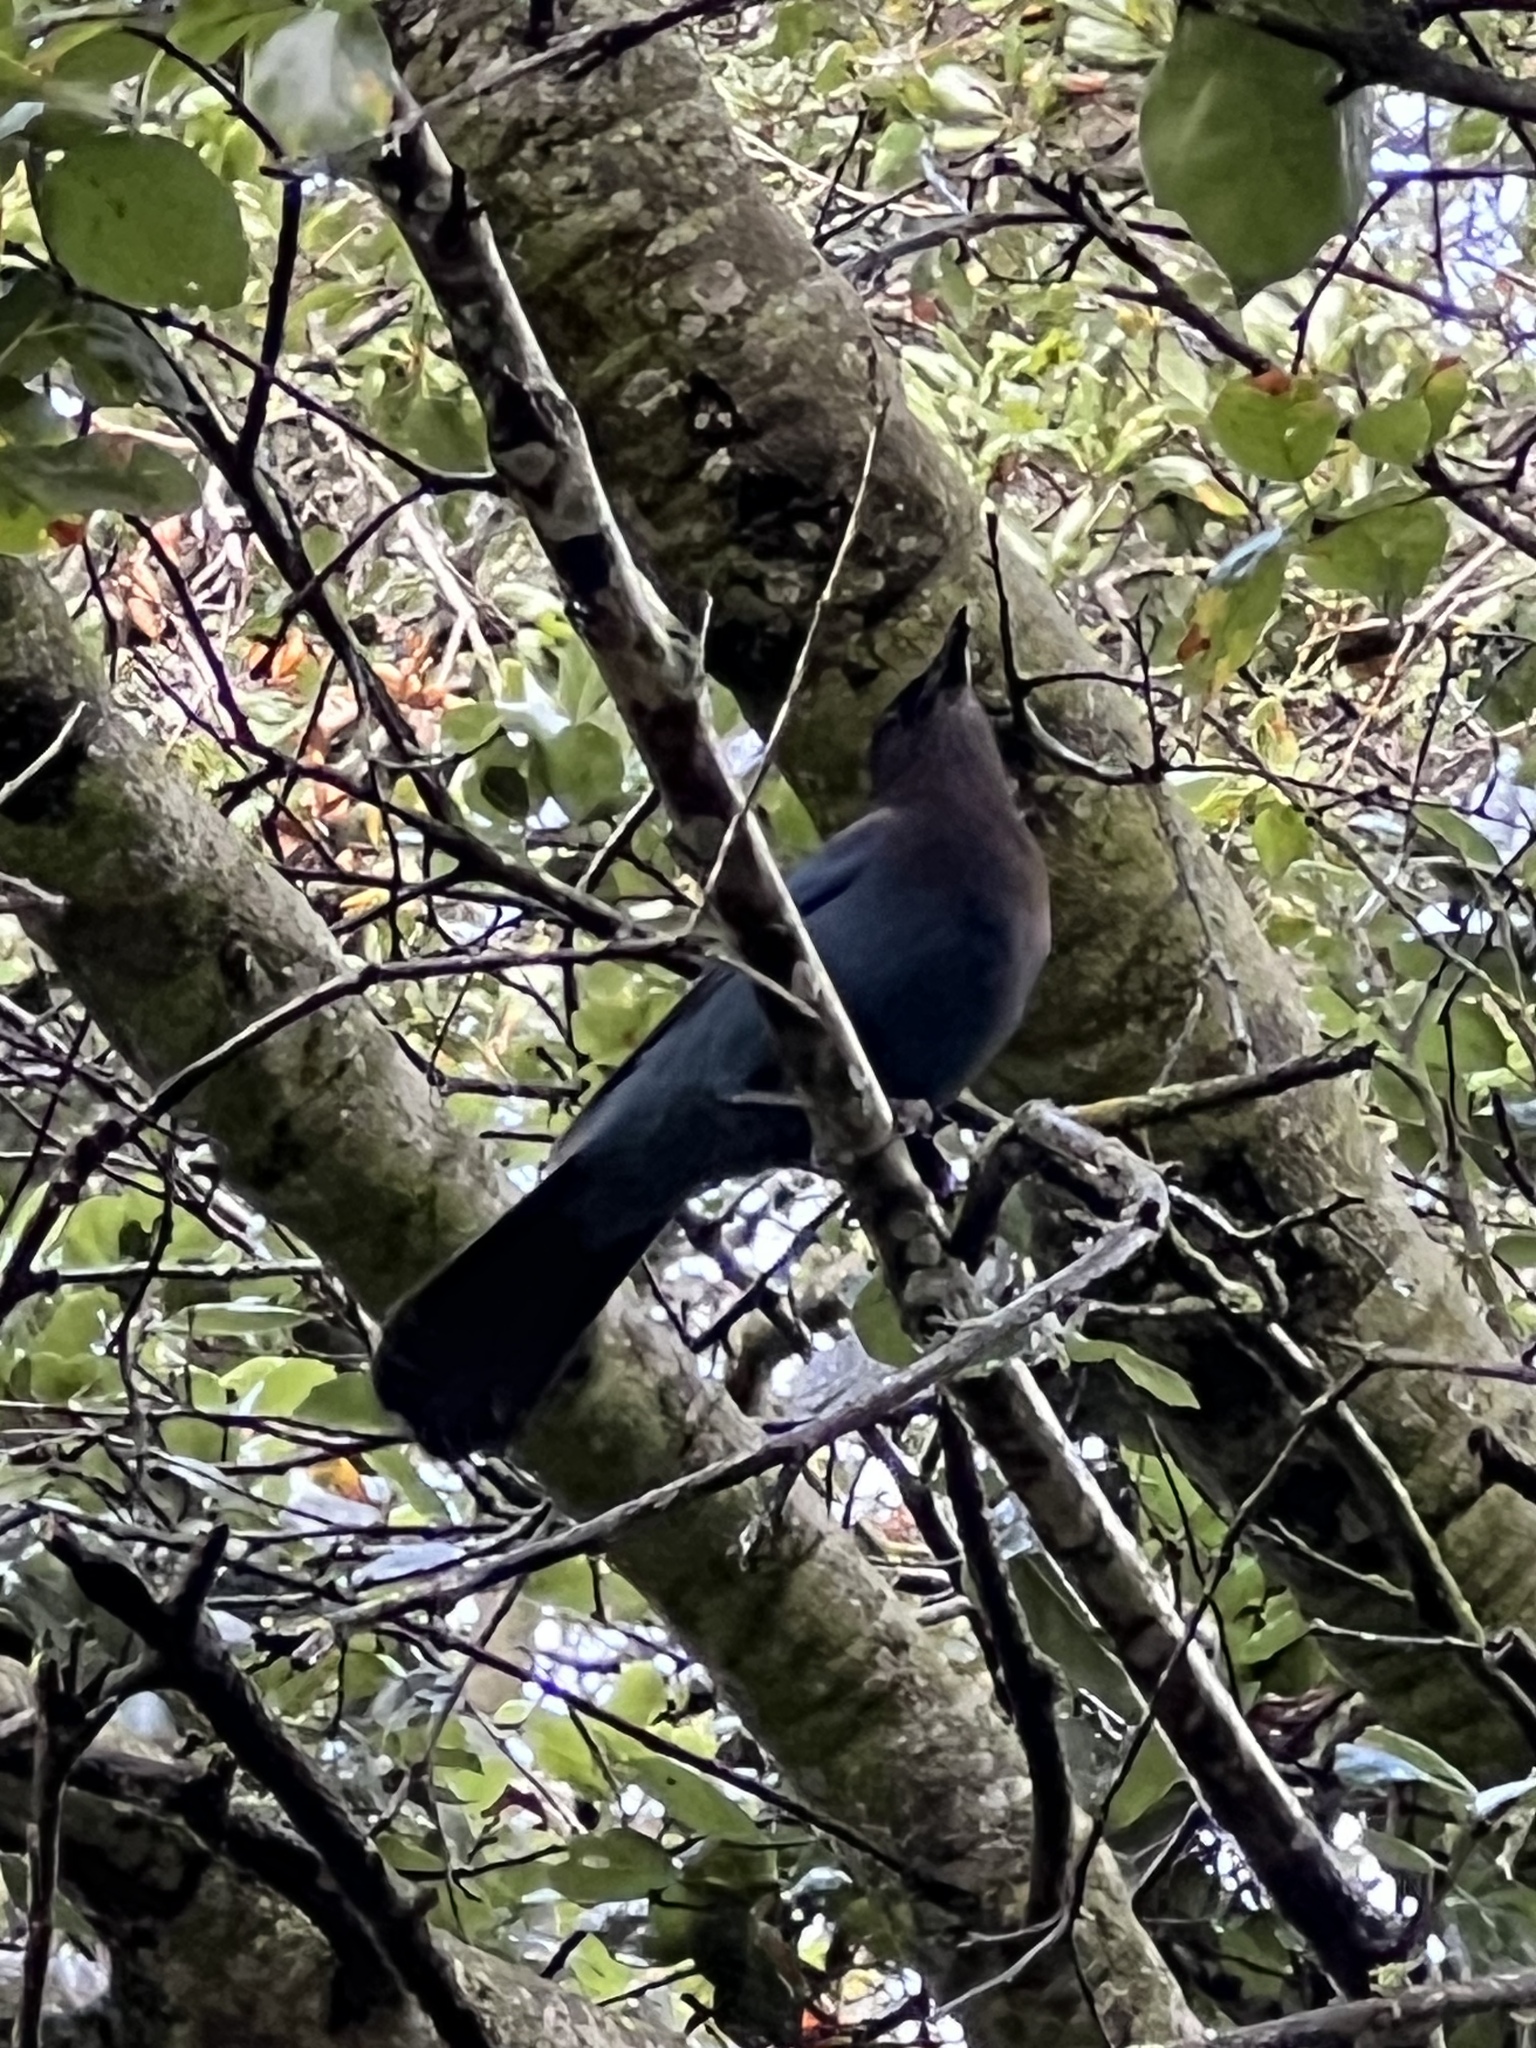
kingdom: Animalia
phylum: Chordata
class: Aves
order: Passeriformes
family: Corvidae
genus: Cyanocitta
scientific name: Cyanocitta stelleri
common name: Steller's jay
